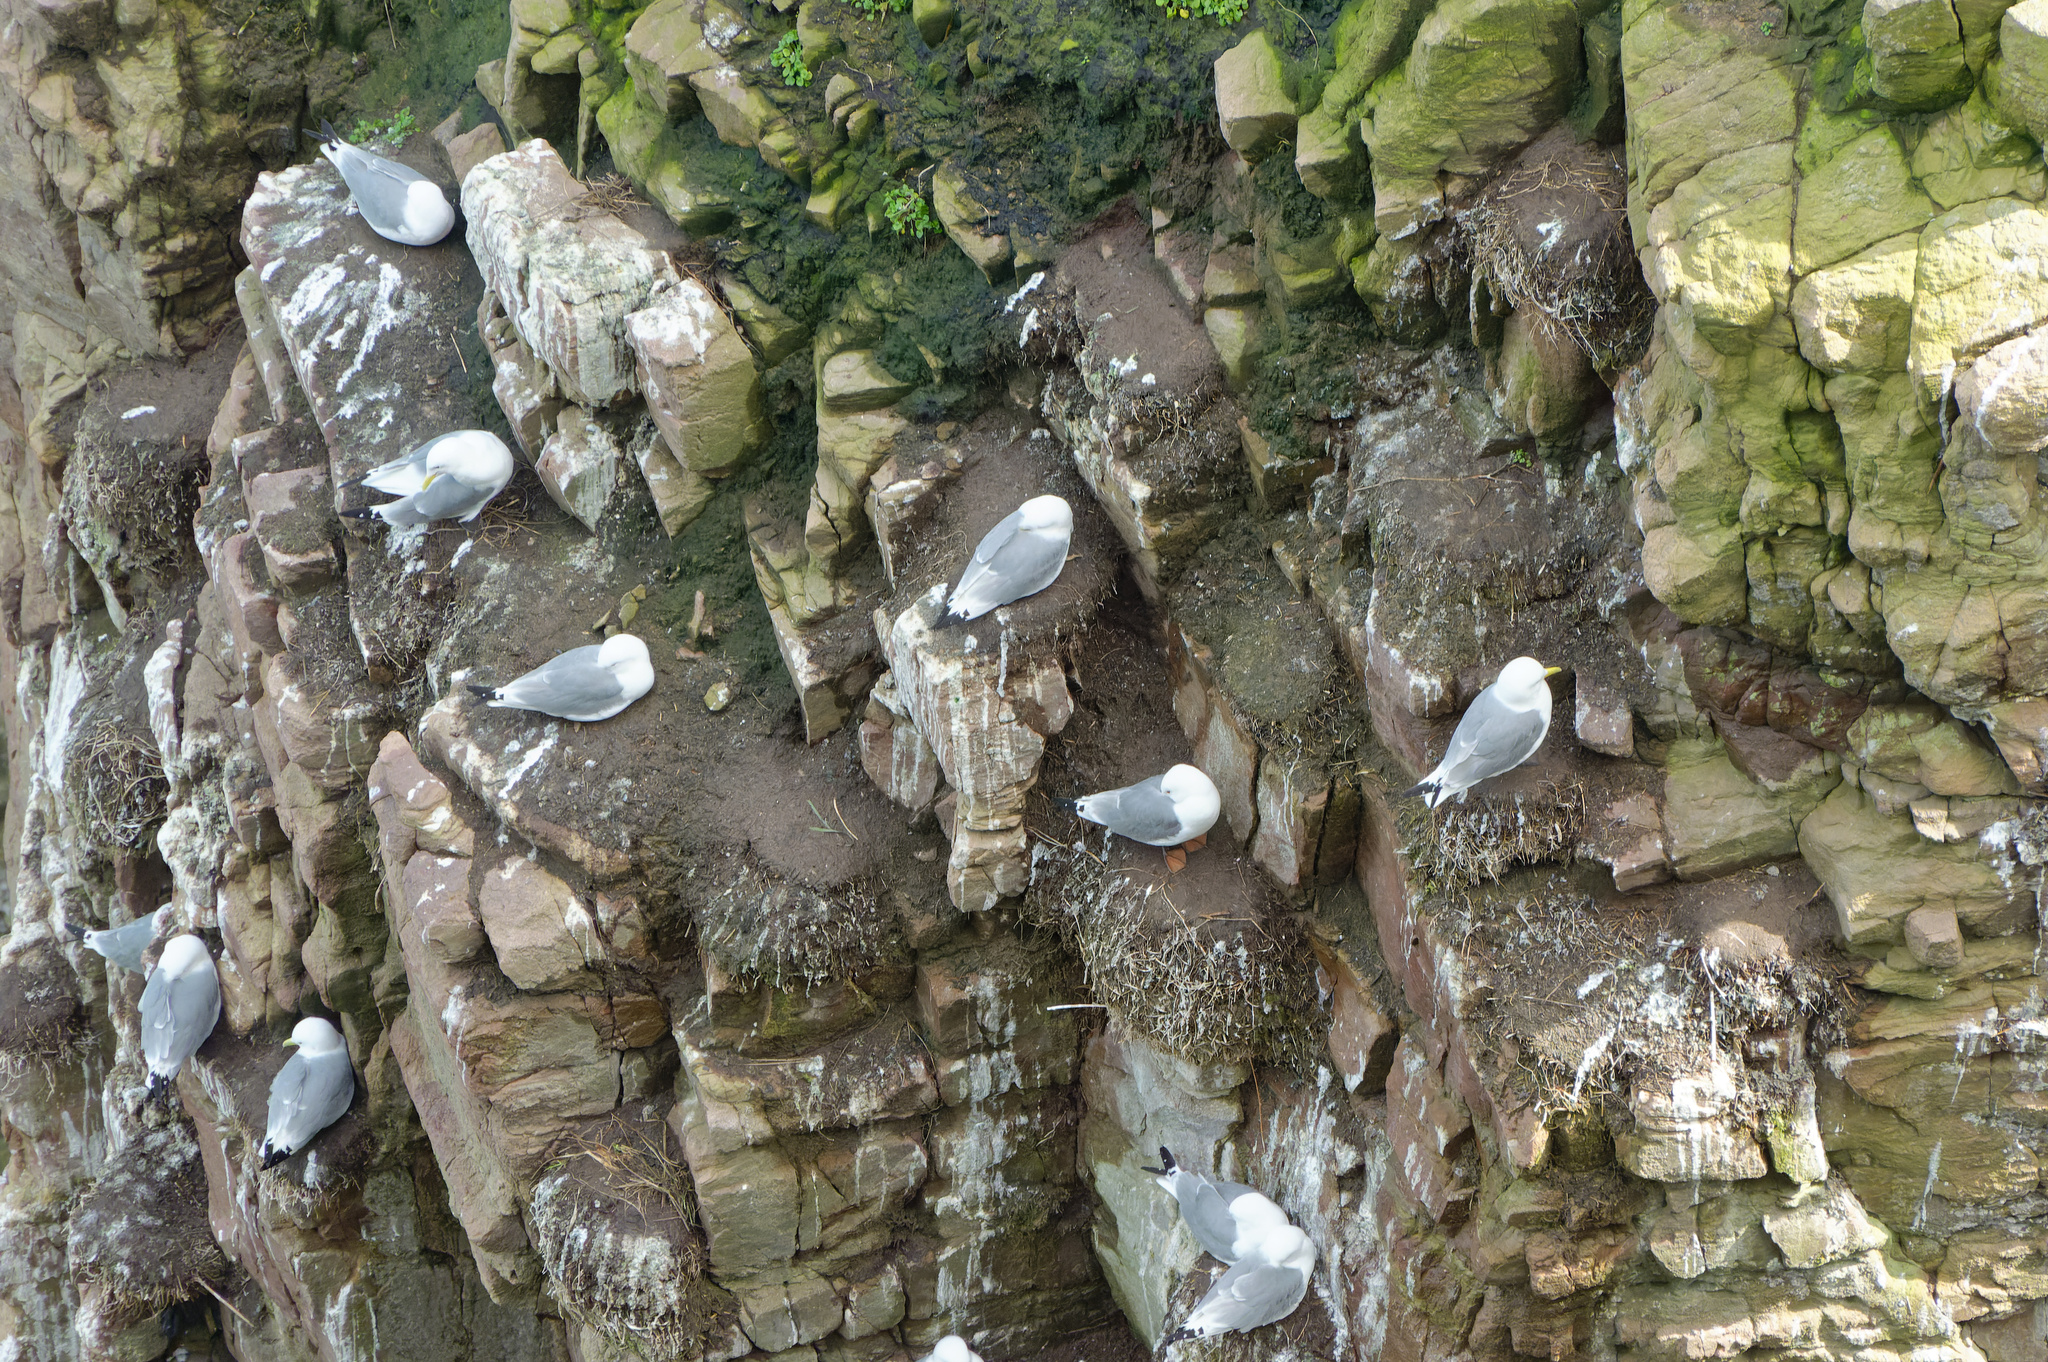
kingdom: Animalia
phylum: Chordata
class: Aves
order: Charadriiformes
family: Laridae
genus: Rissa
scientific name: Rissa tridactyla
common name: Black-legged kittiwake
